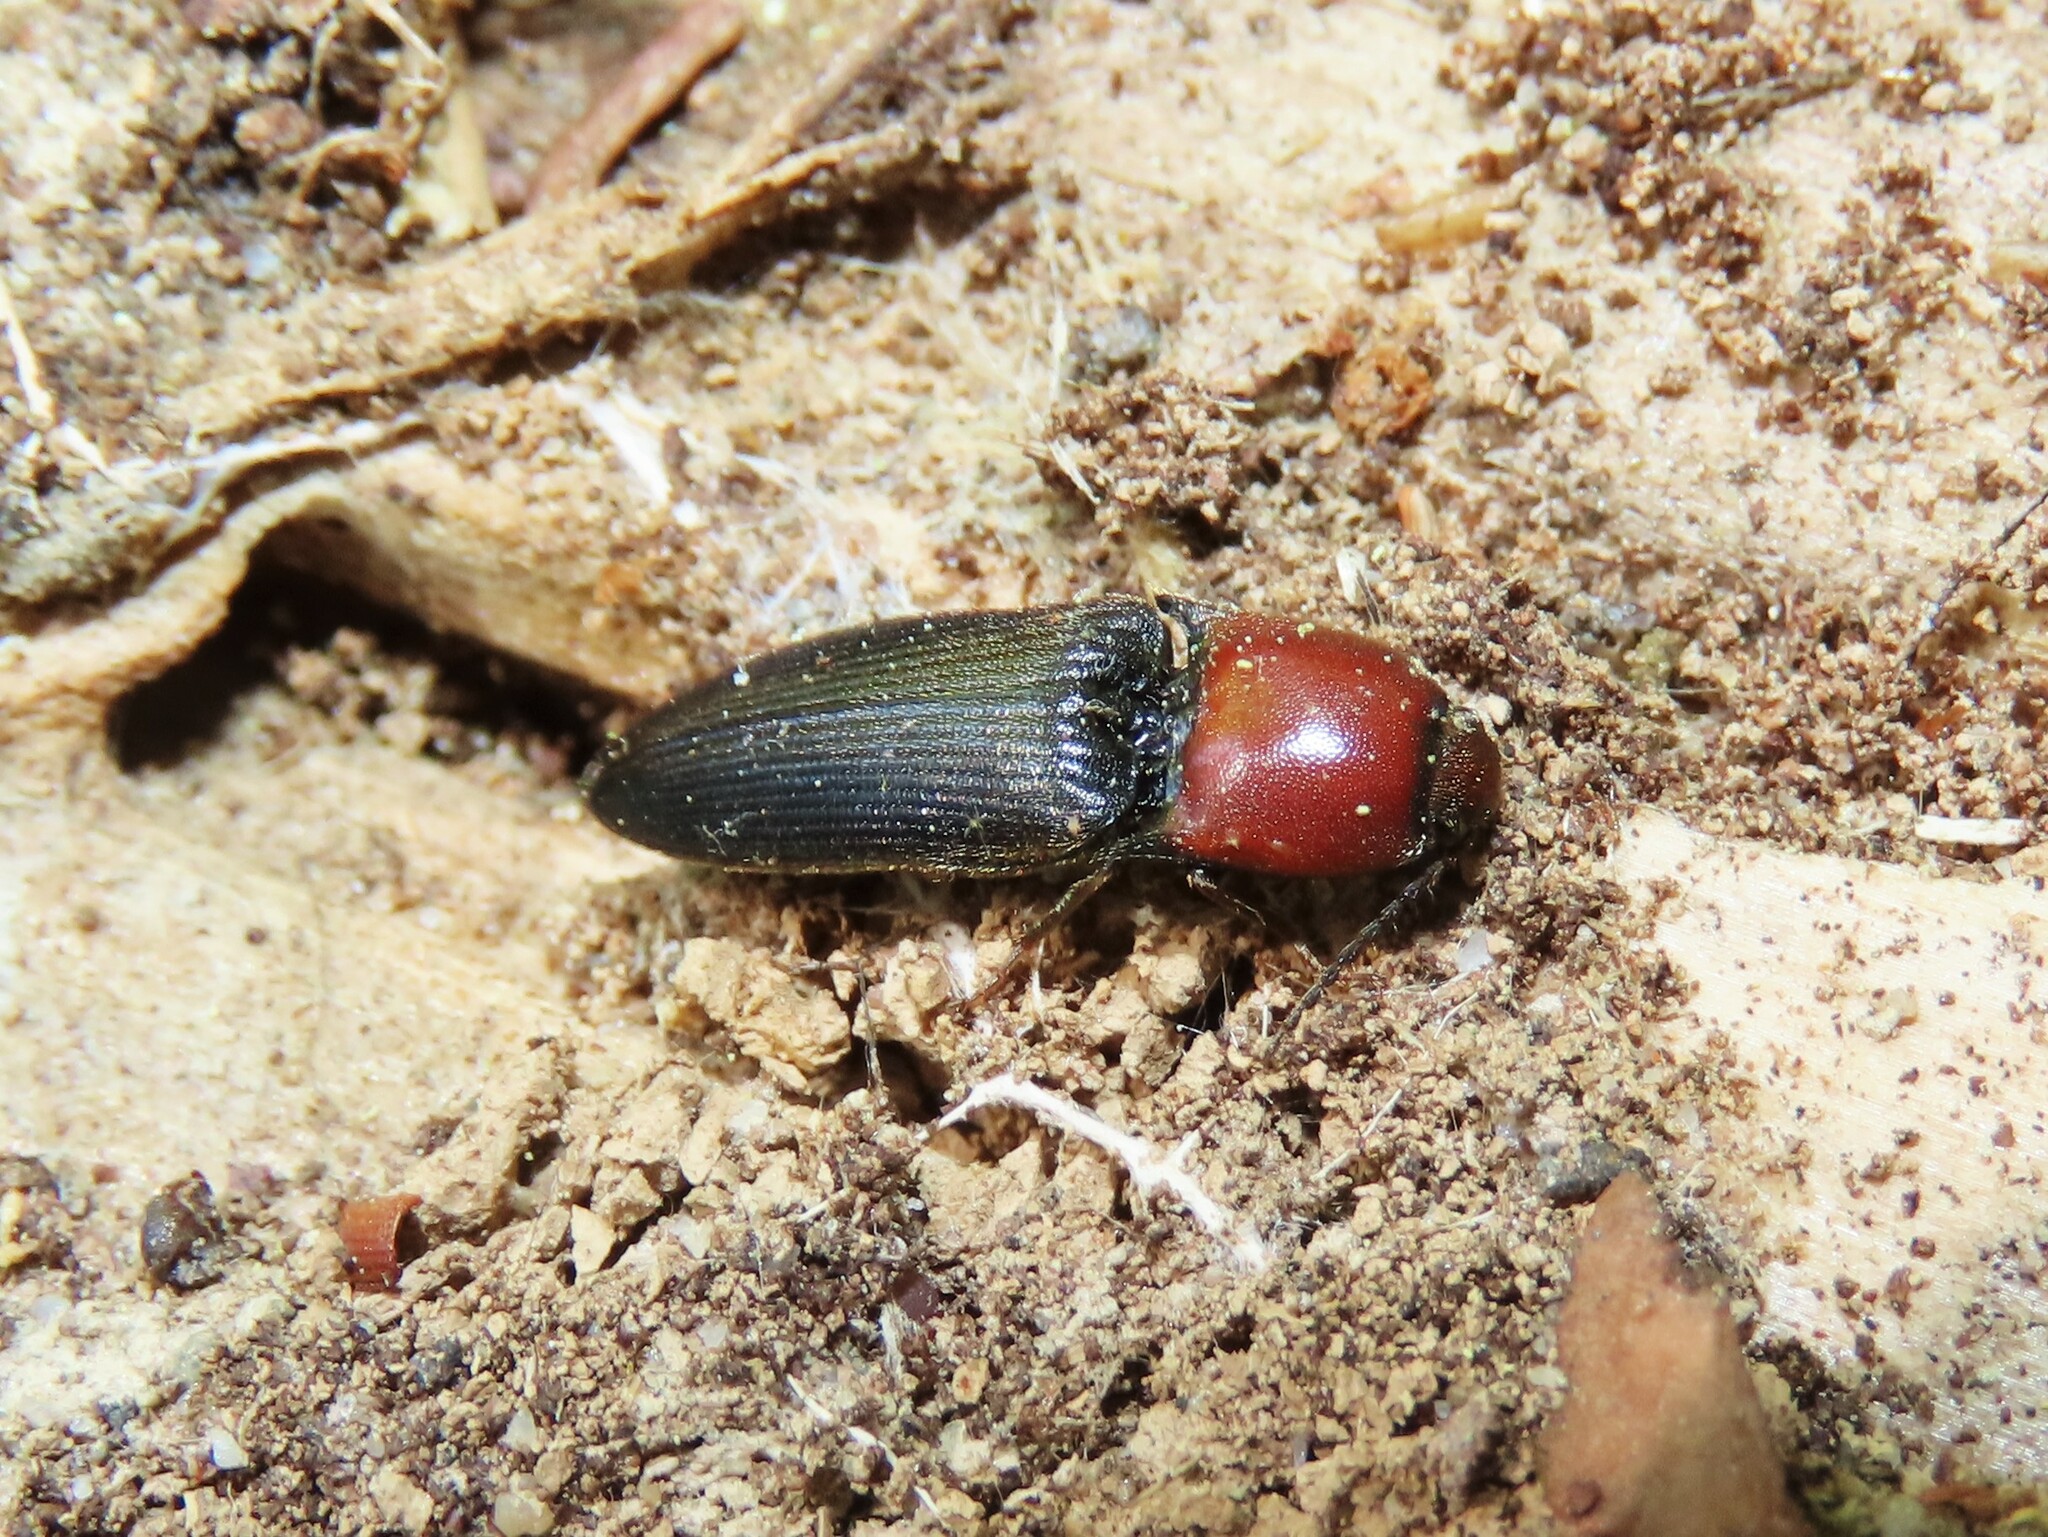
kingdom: Animalia
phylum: Arthropoda
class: Insecta
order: Coleoptera
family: Elateridae
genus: Ampedus
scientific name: Ampedus rubricollis
